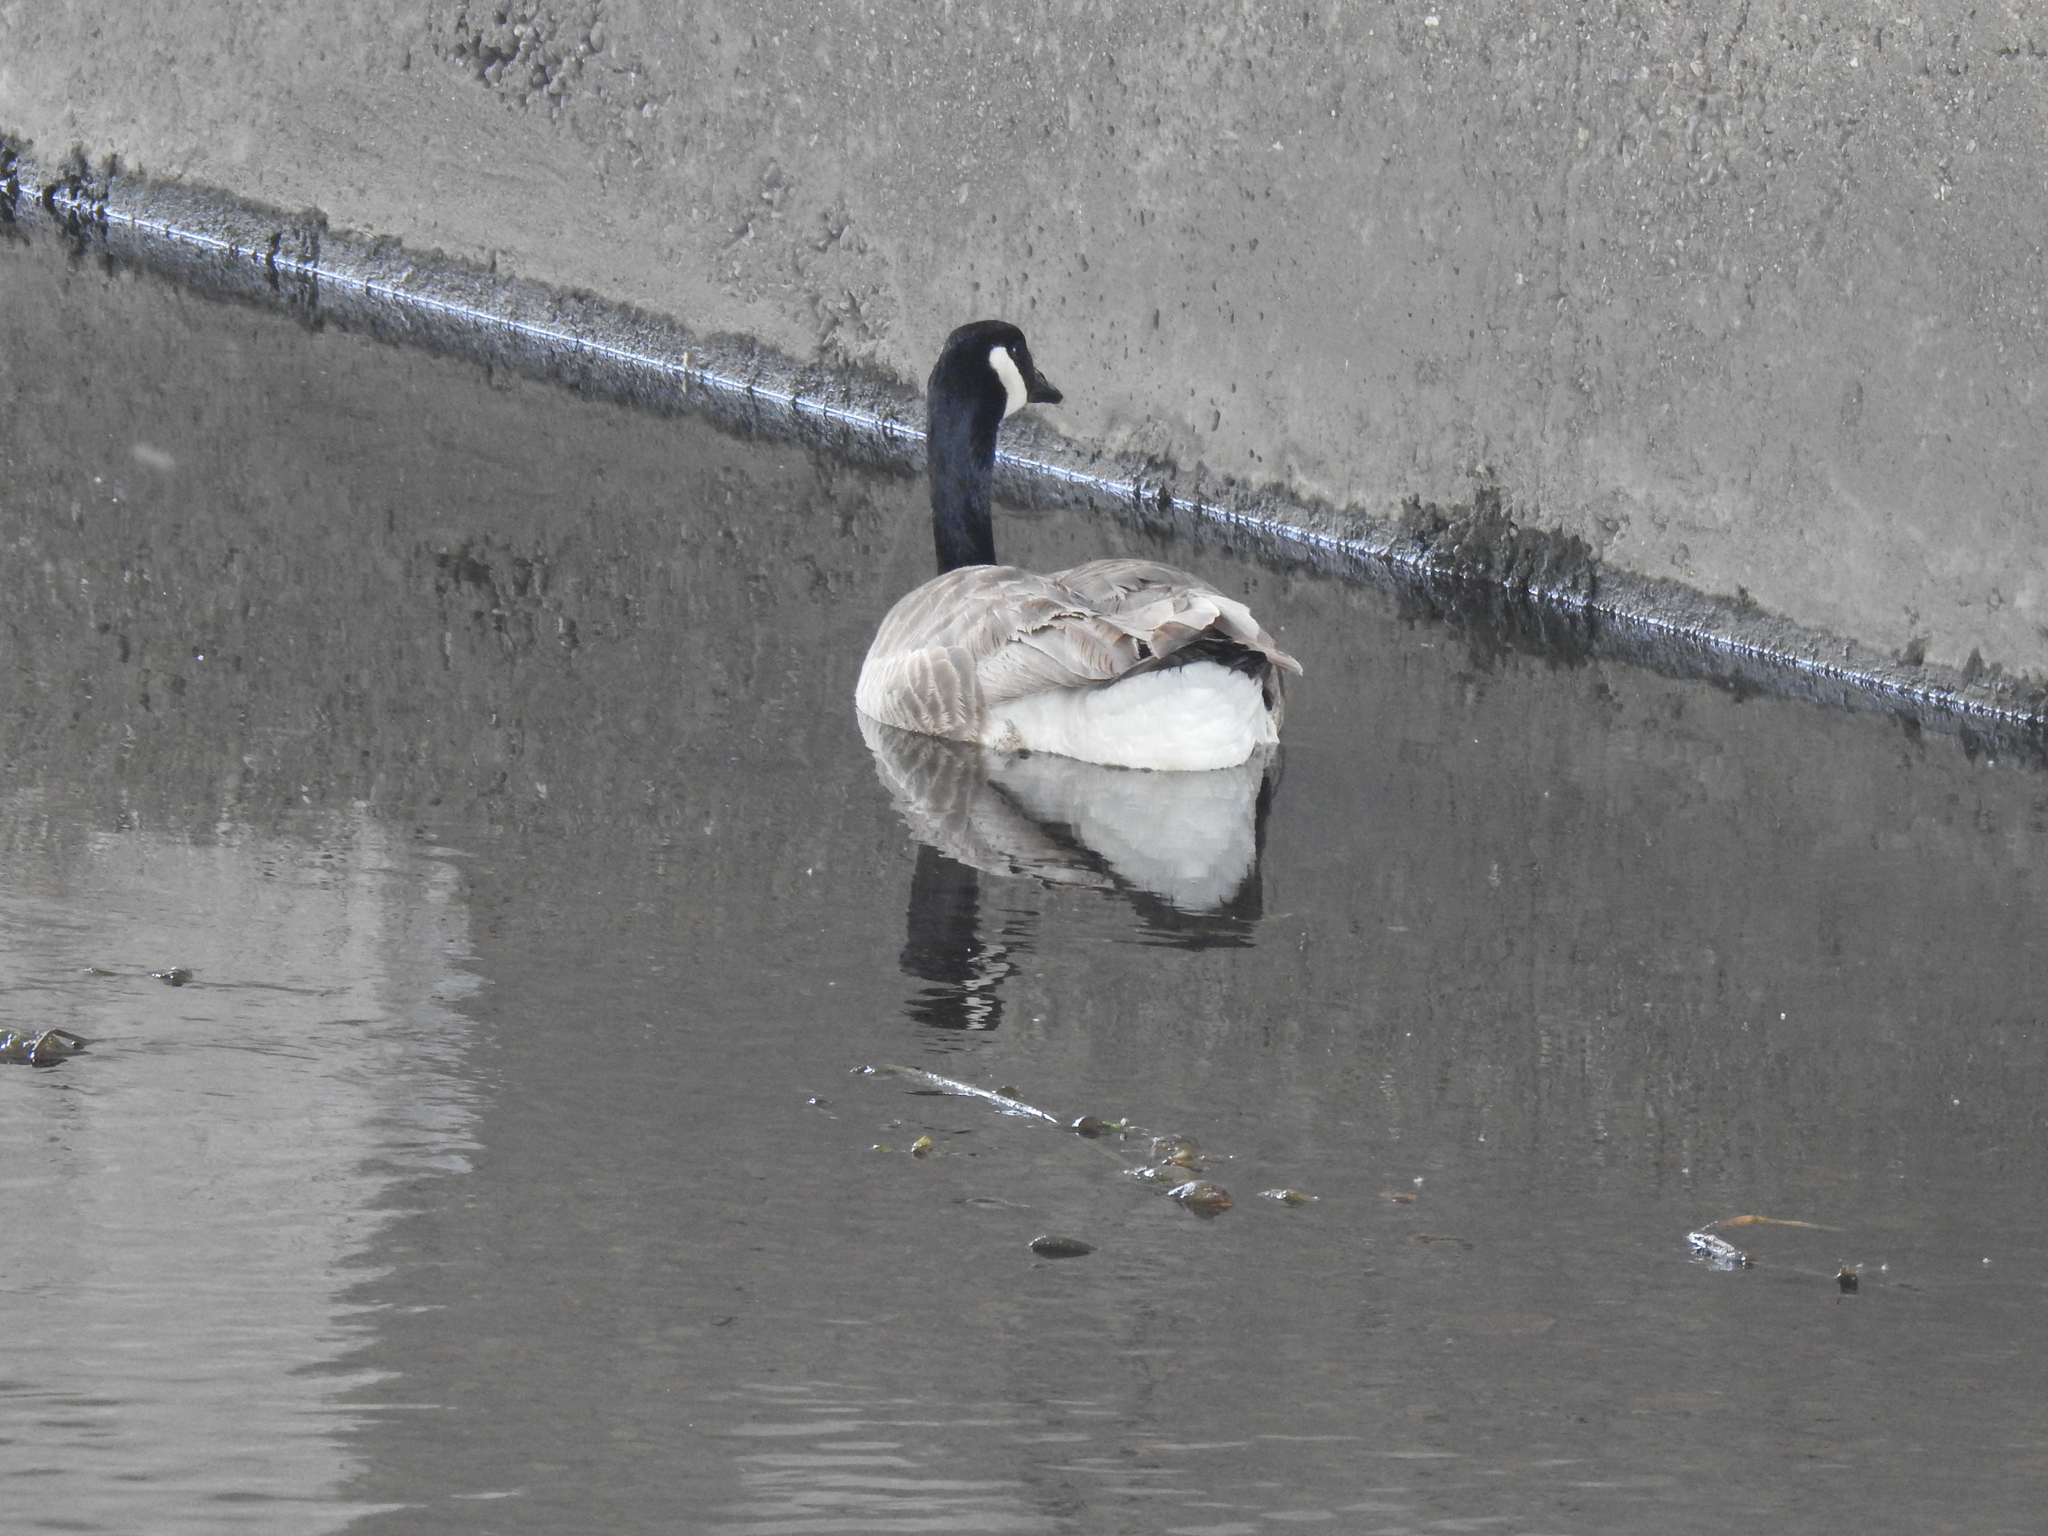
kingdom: Animalia
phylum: Chordata
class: Aves
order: Anseriformes
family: Anatidae
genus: Branta
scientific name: Branta canadensis
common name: Canada goose
